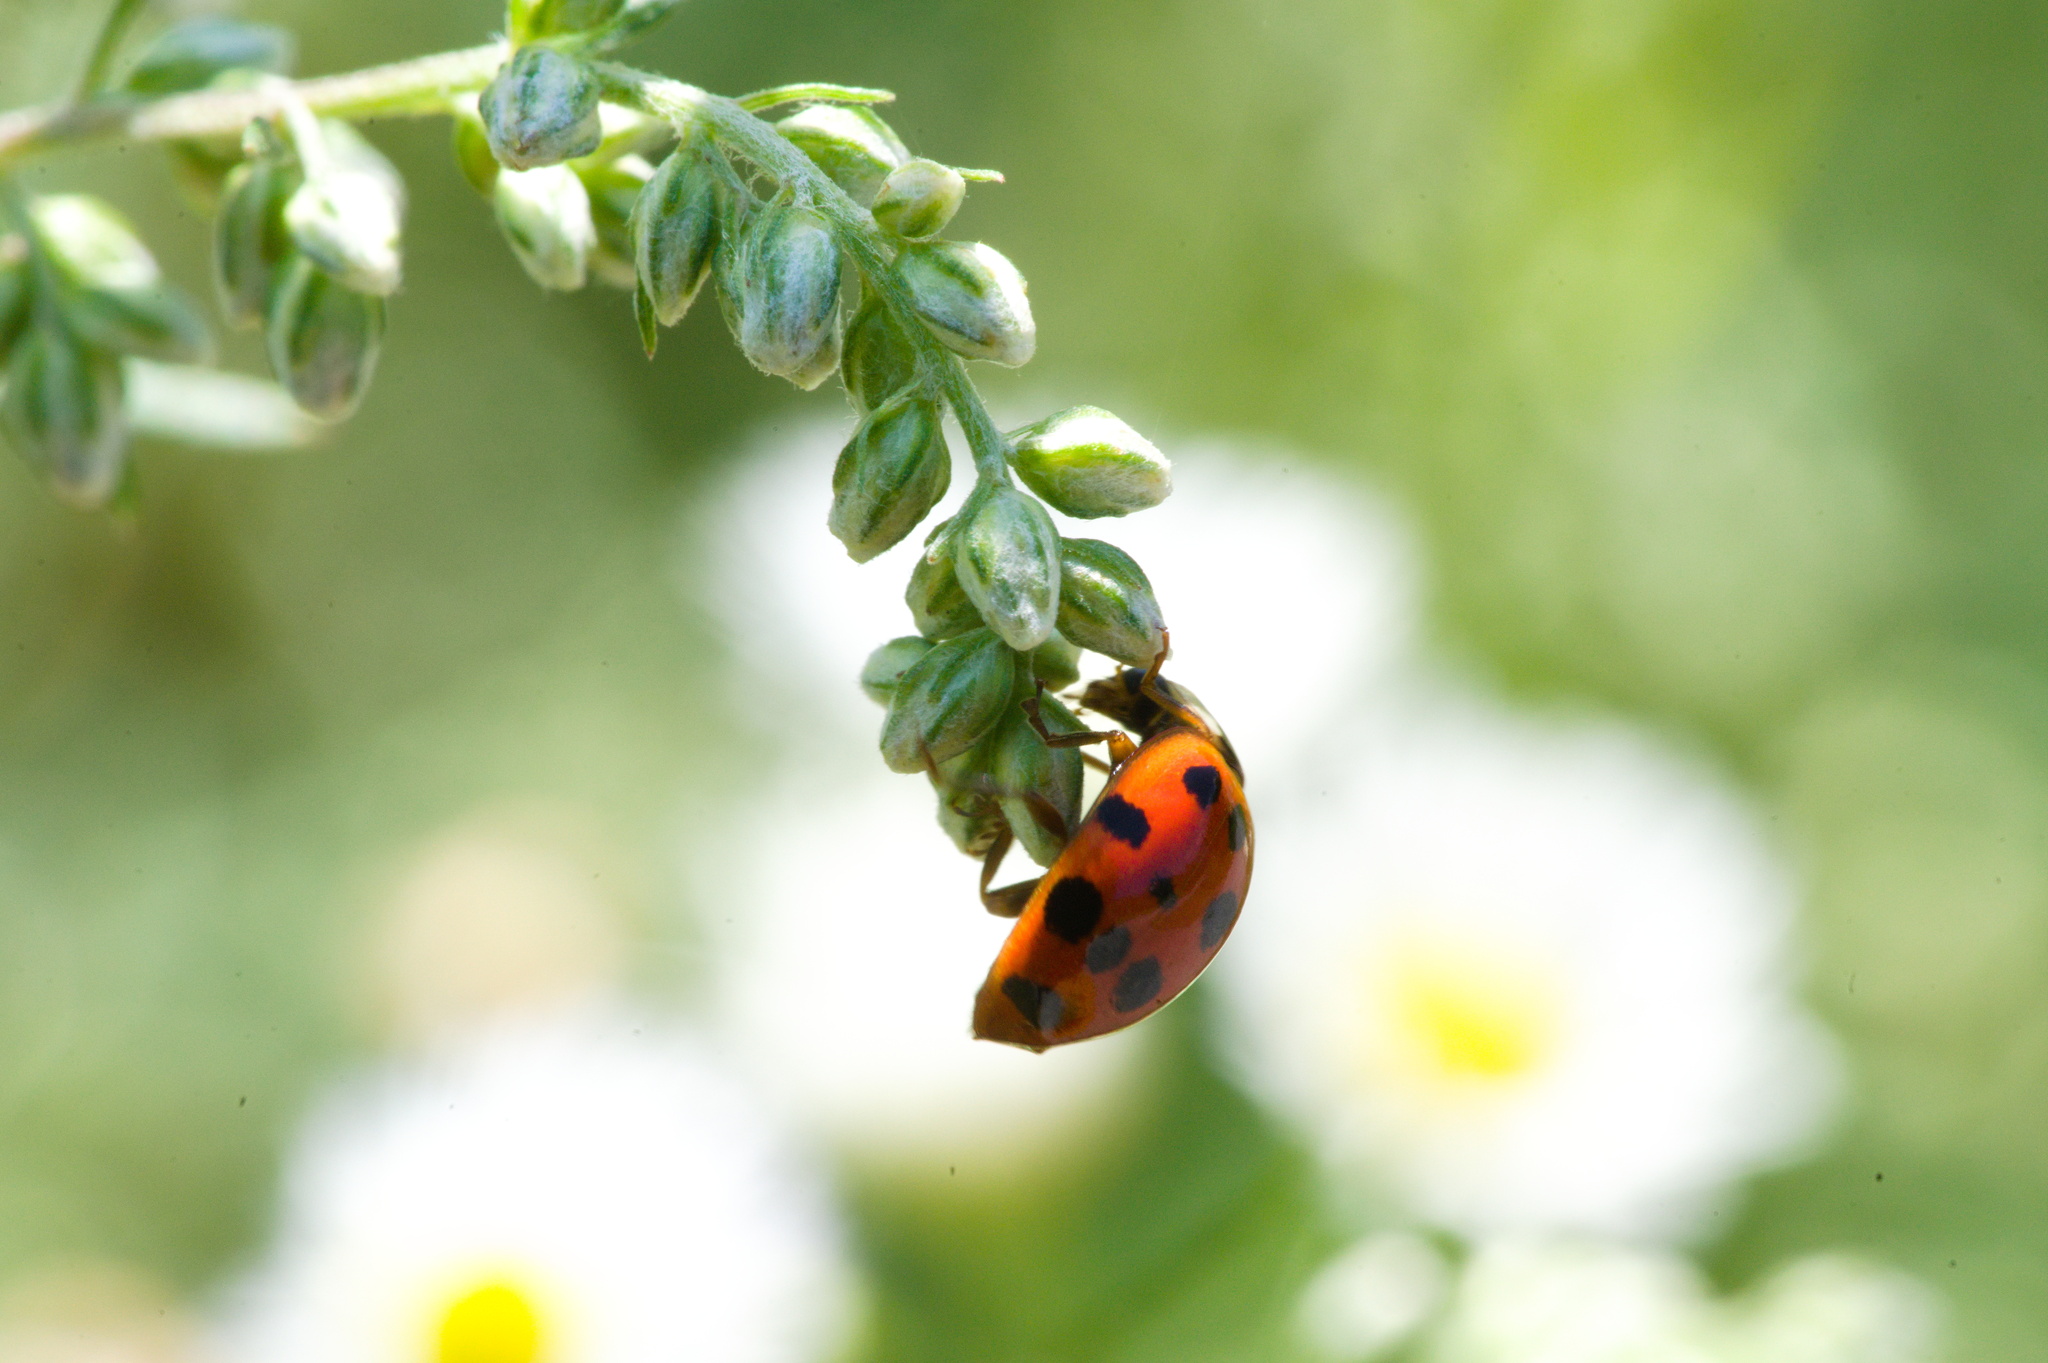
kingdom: Animalia
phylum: Arthropoda
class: Insecta
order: Coleoptera
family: Coccinellidae
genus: Harmonia
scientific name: Harmonia axyridis
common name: Harlequin ladybird
